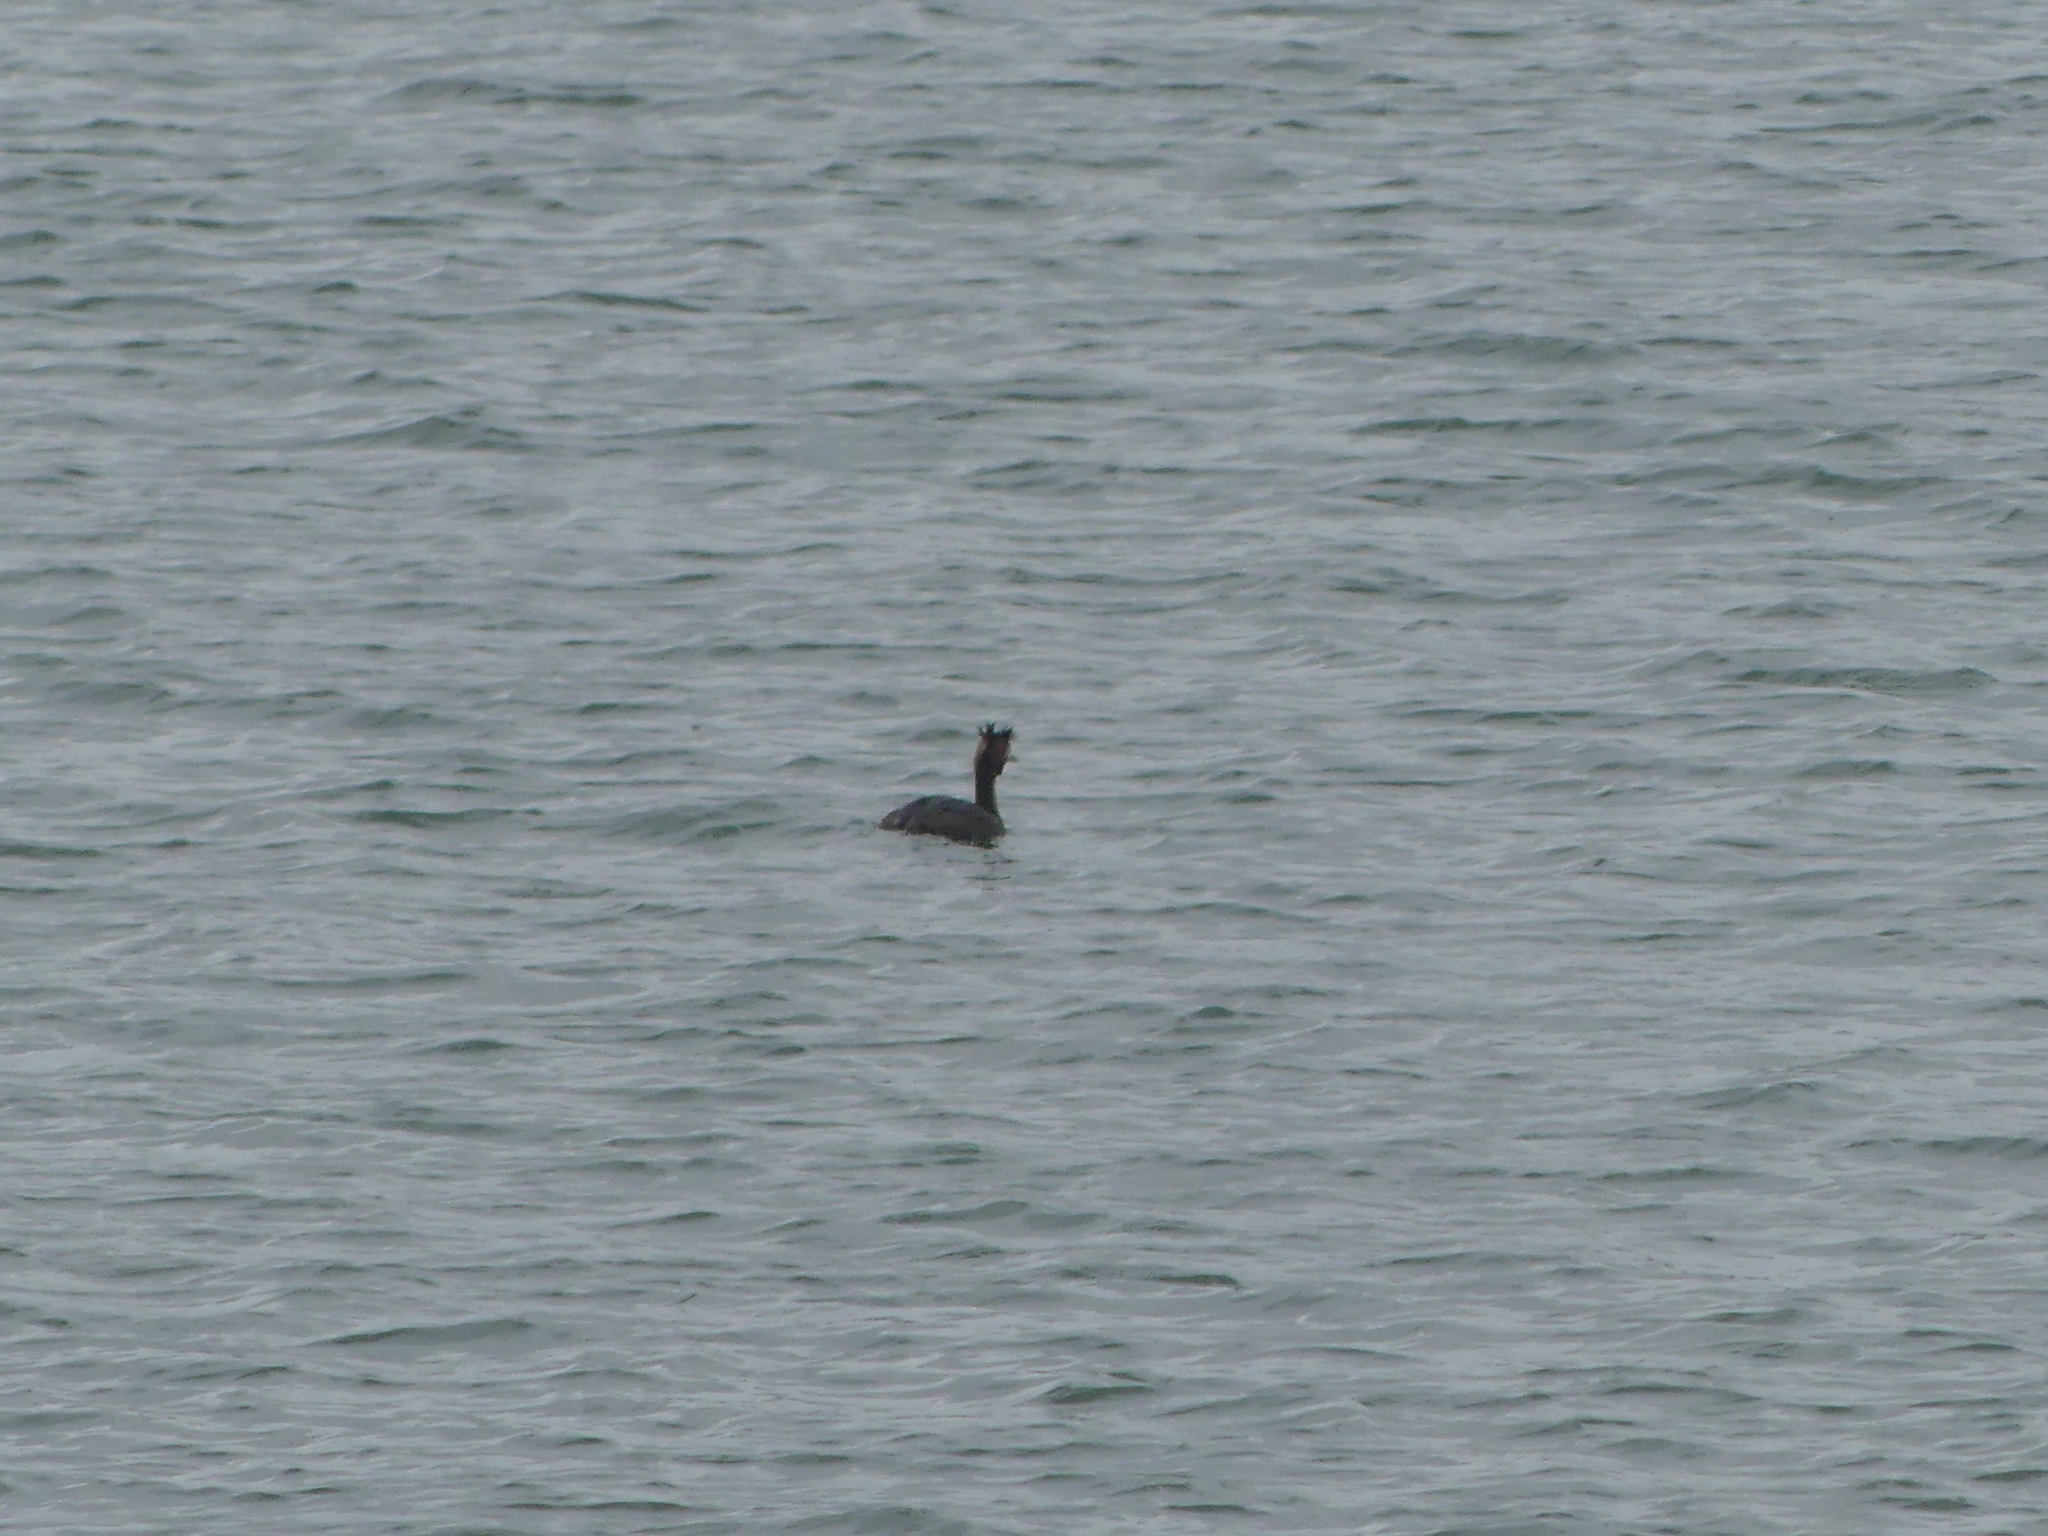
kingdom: Animalia
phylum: Chordata
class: Aves
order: Podicipediformes
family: Podicipedidae
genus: Podiceps
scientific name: Podiceps cristatus
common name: Great crested grebe
